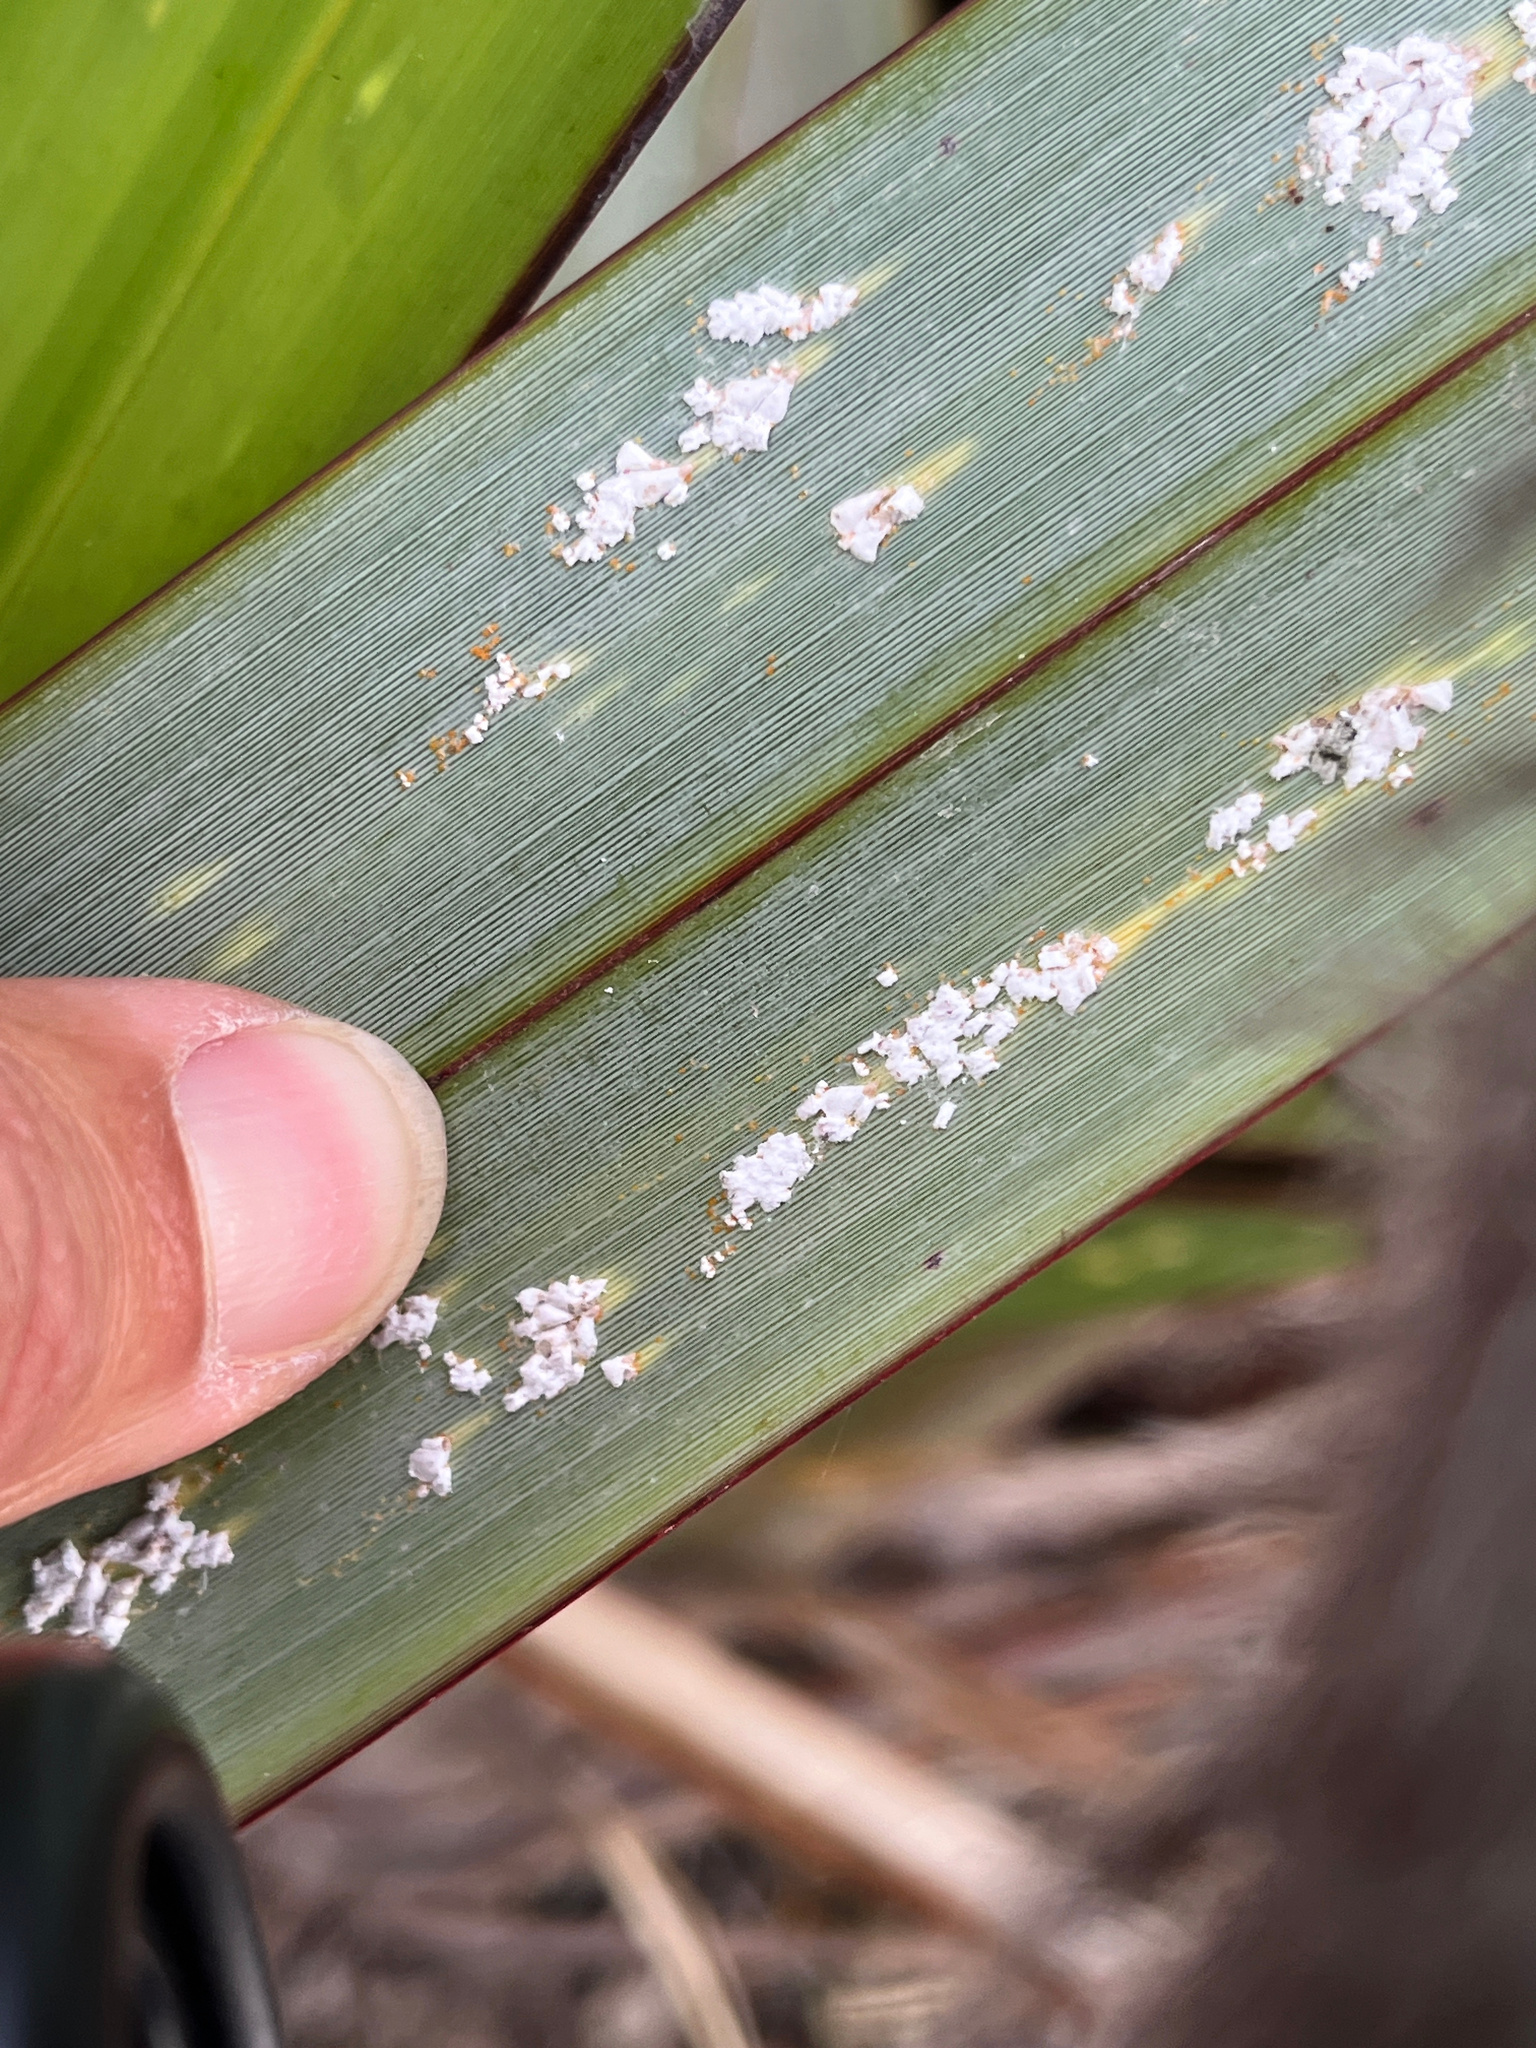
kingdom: Animalia
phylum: Arthropoda
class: Insecta
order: Hemiptera
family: Diaspididae
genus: Poliaspis
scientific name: Poliaspis floccosa
